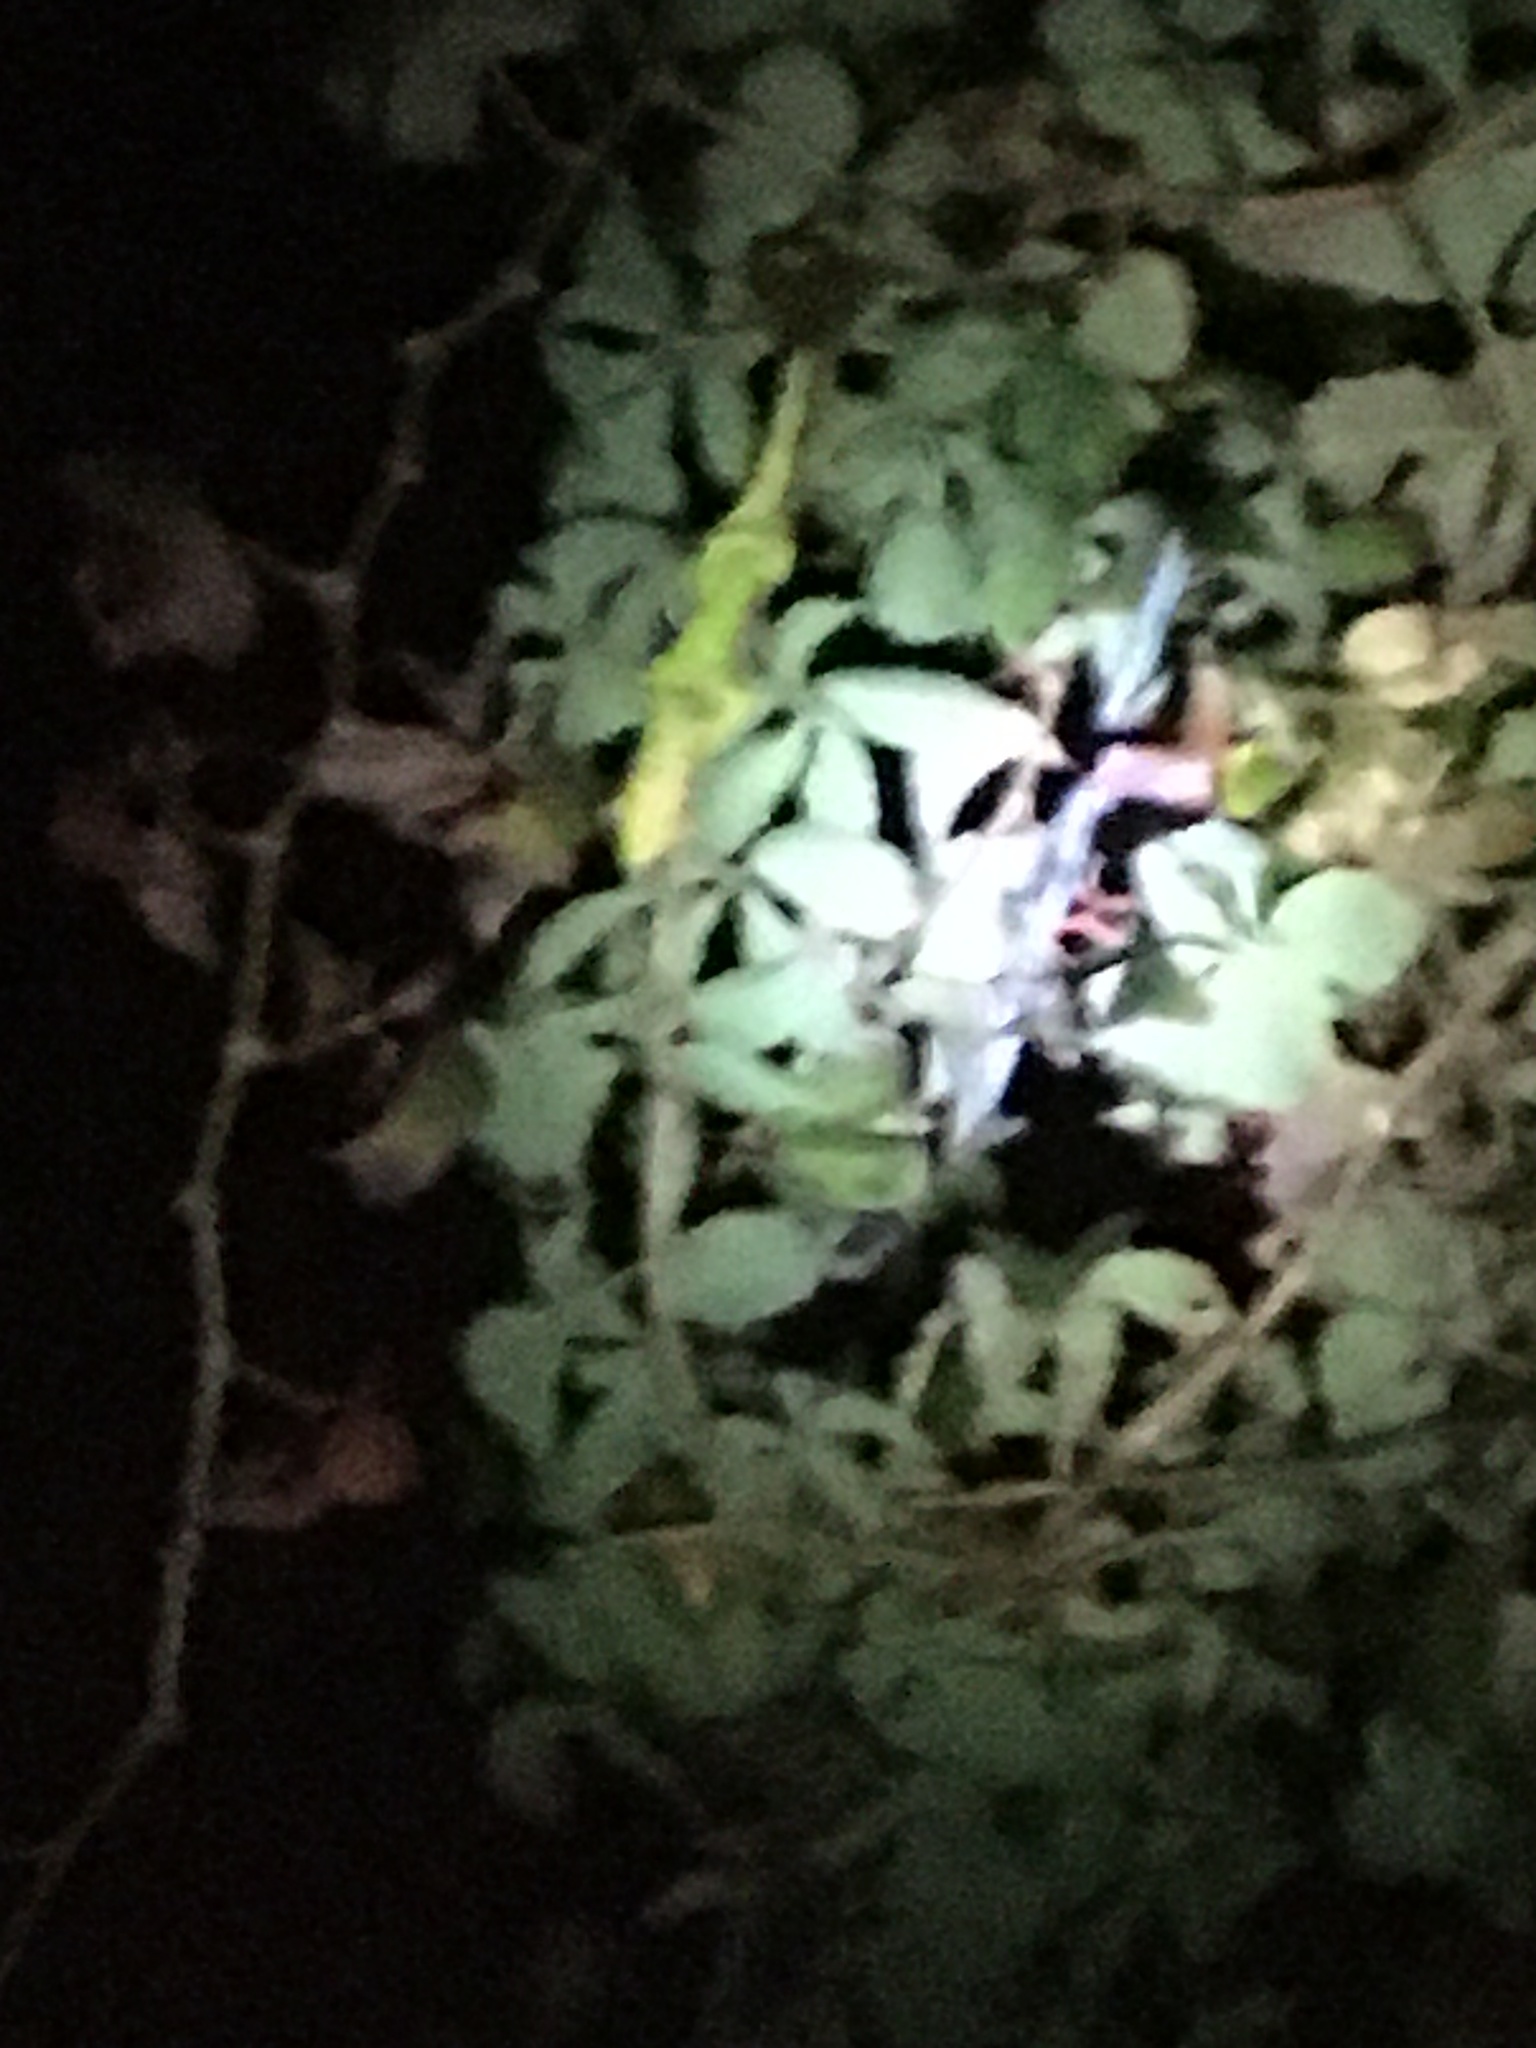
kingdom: Animalia
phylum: Chordata
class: Squamata
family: Chamaeleonidae
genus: Bradypodion
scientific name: Bradypodion pumilum
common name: Cape dwarf chameleon
